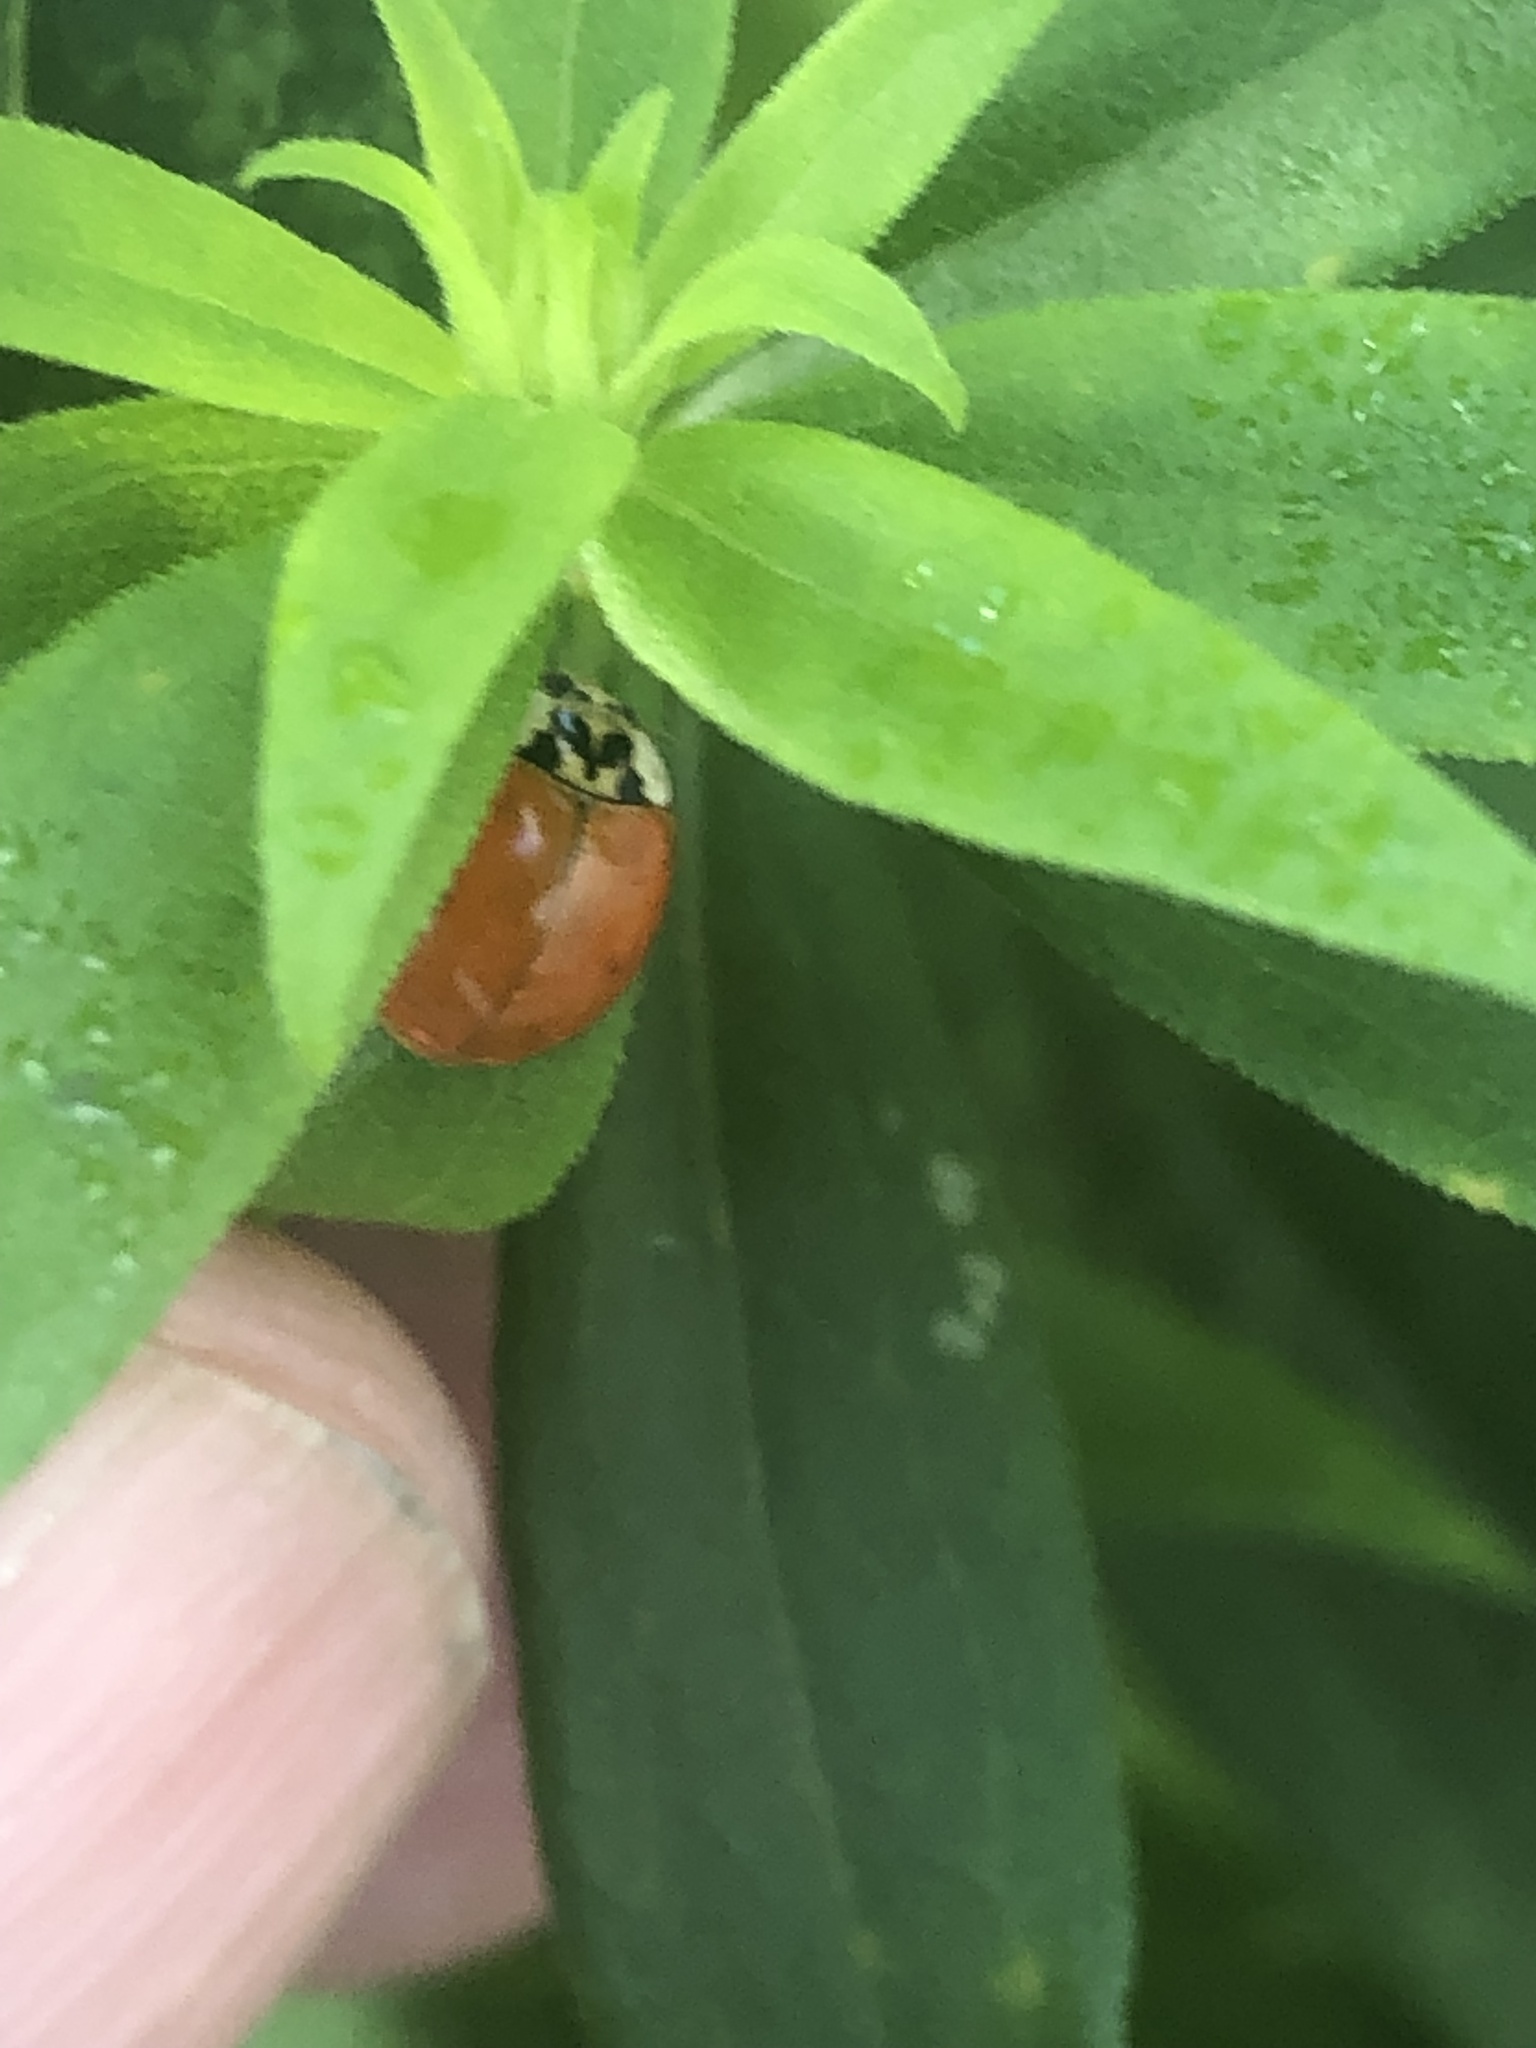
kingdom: Animalia
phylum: Arthropoda
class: Insecta
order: Coleoptera
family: Coccinellidae
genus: Harmonia
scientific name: Harmonia axyridis
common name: Harlequin ladybird
